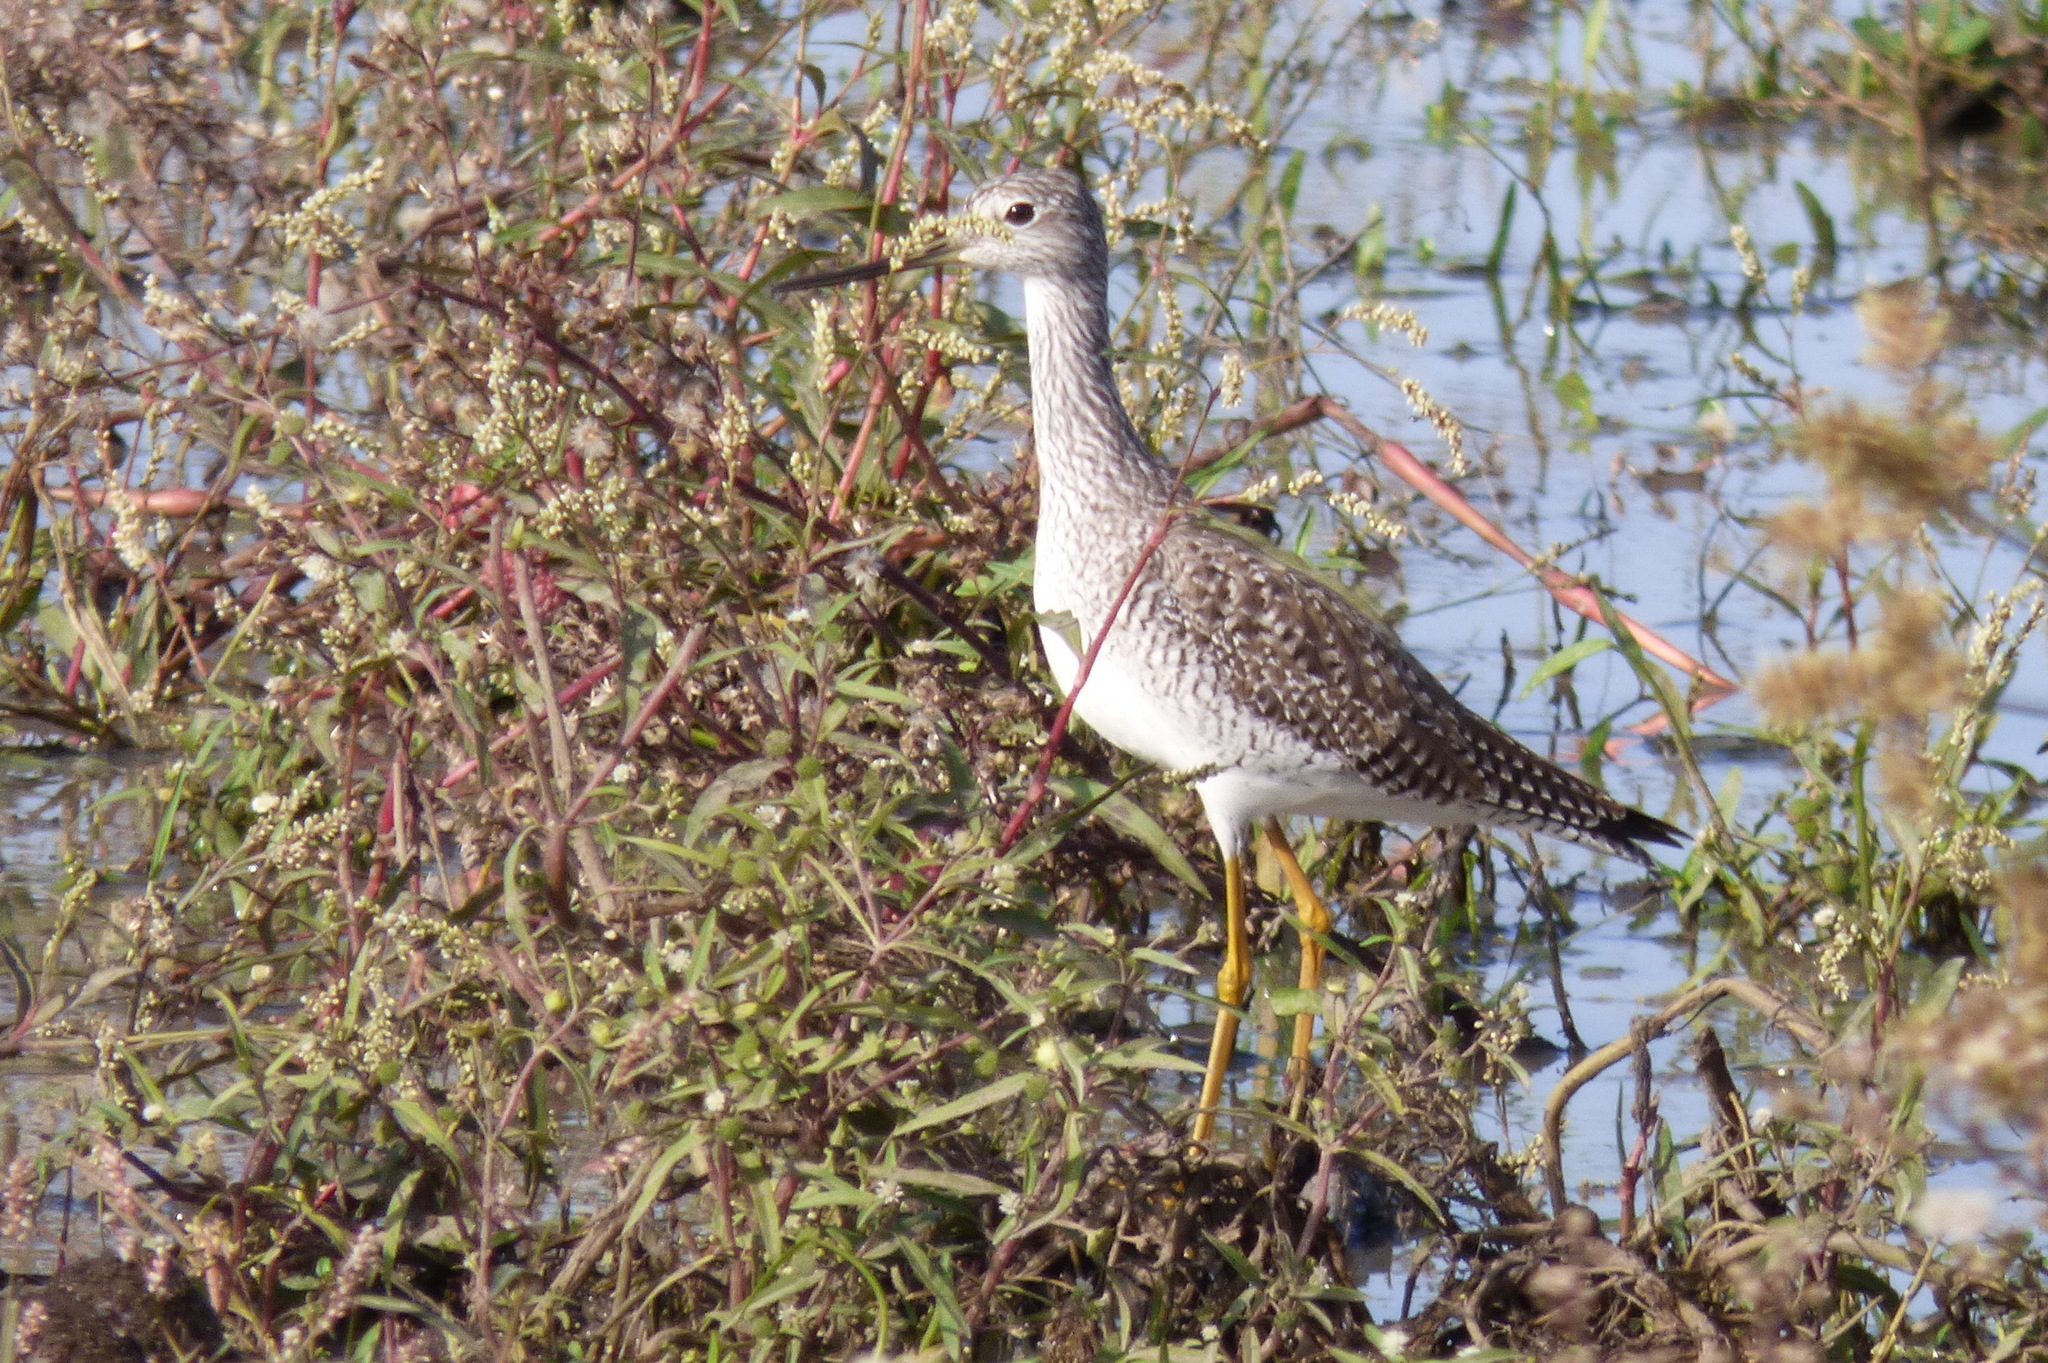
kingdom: Animalia
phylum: Chordata
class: Aves
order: Charadriiformes
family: Scolopacidae
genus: Tringa
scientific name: Tringa melanoleuca
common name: Greater yellowlegs
